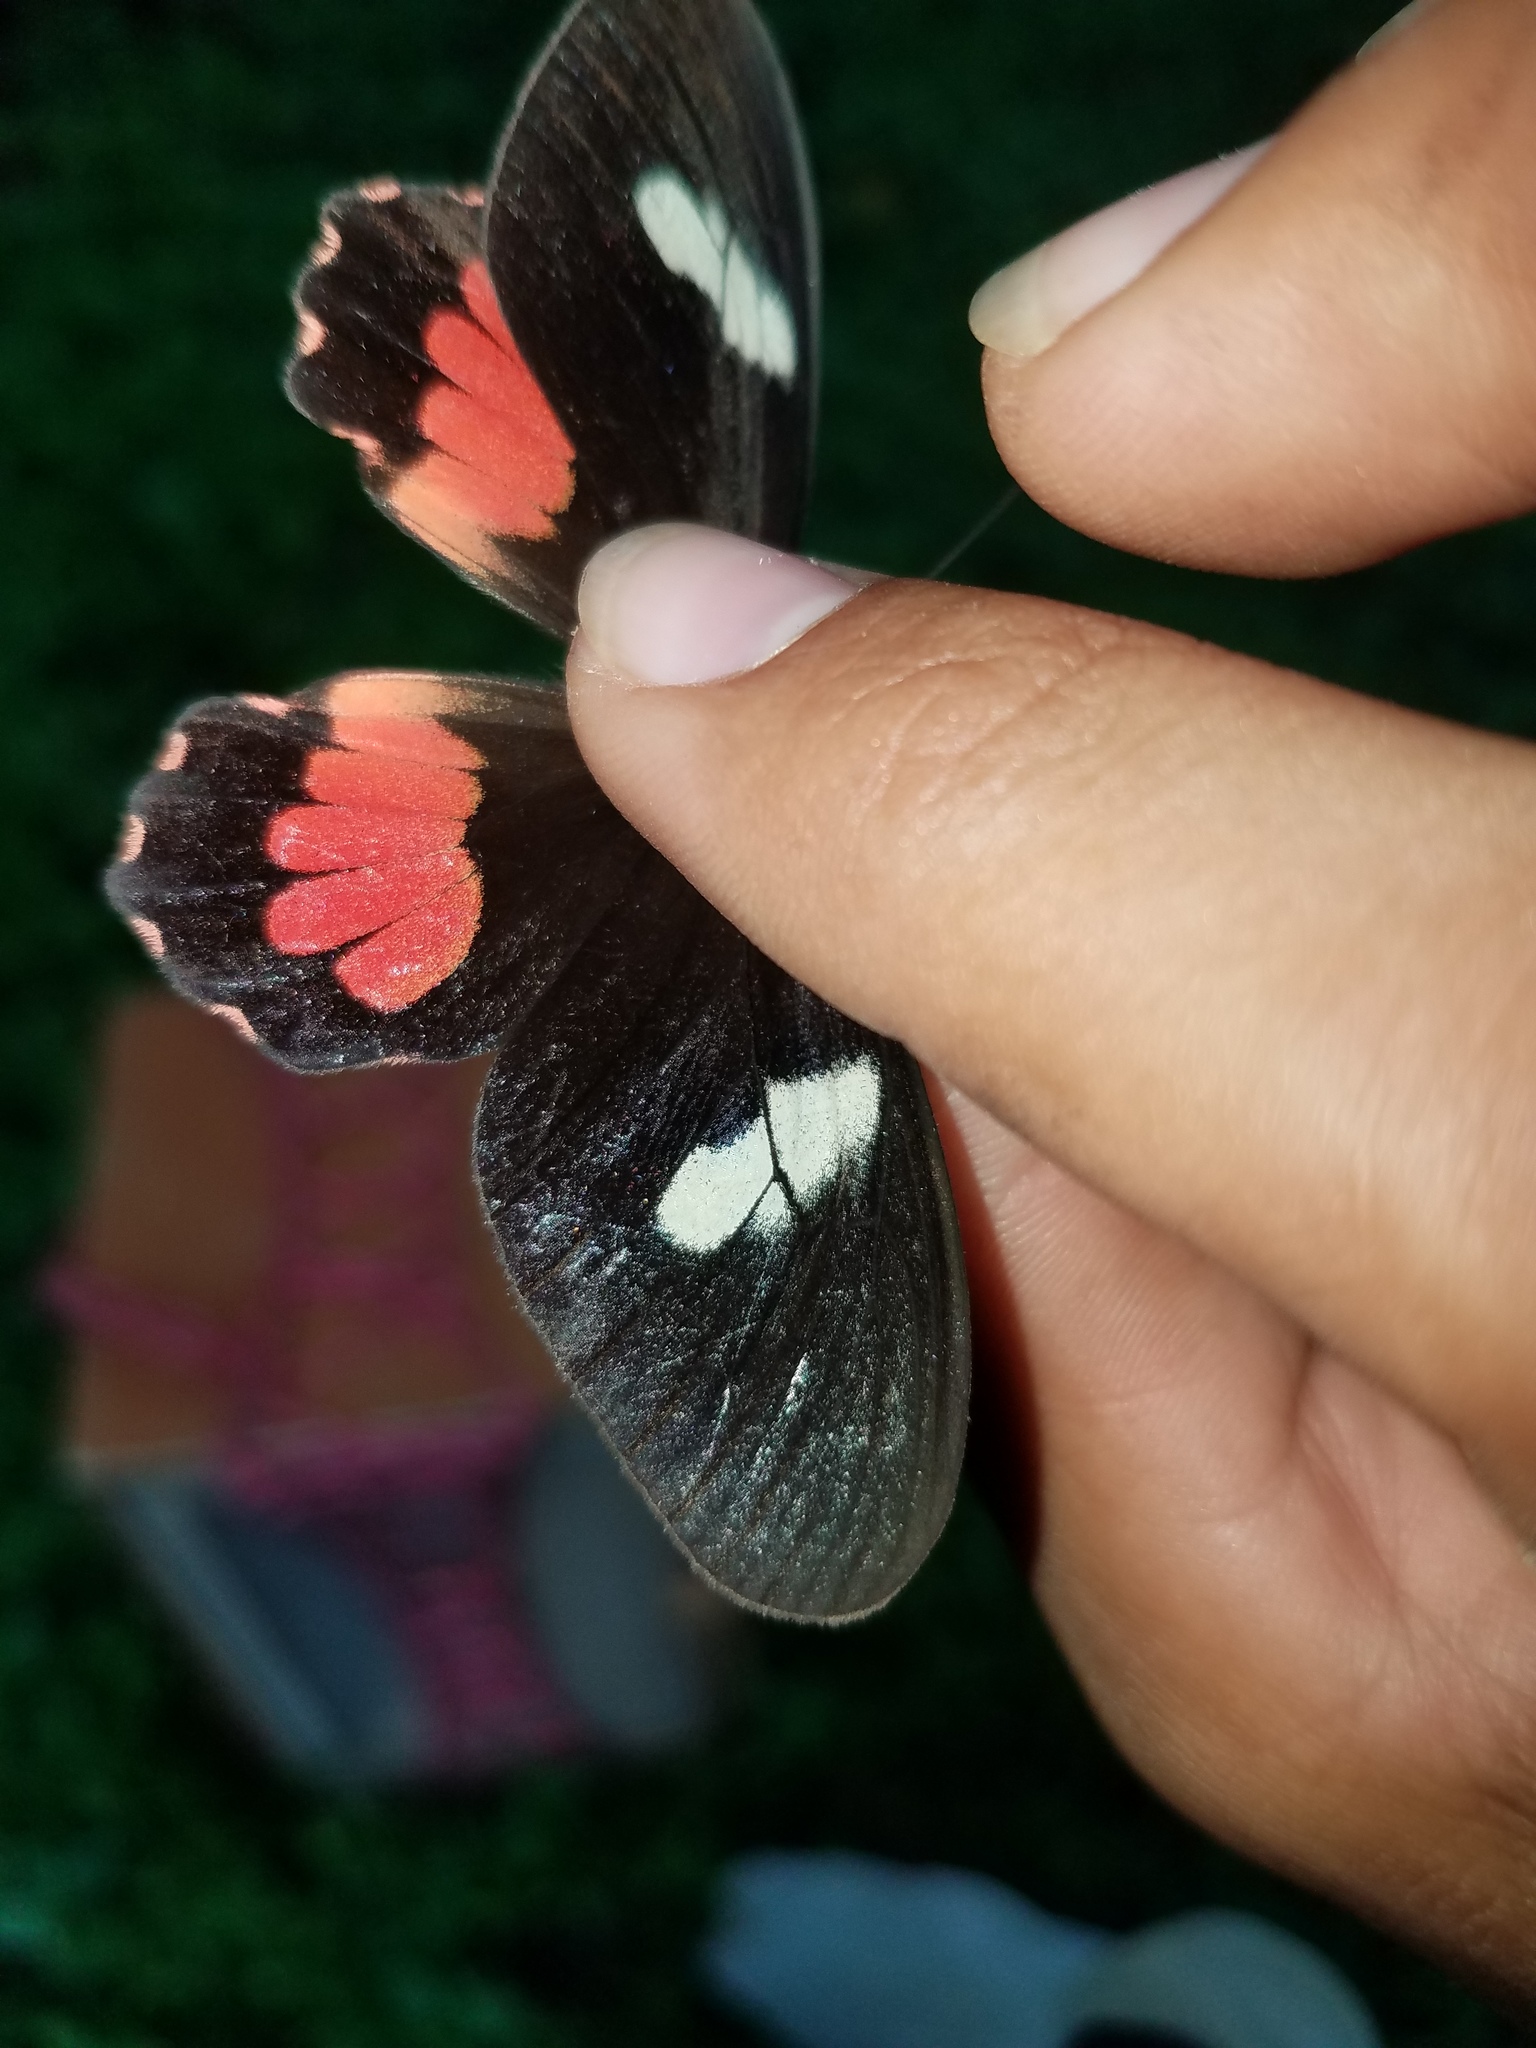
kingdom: Animalia
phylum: Arthropoda
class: Insecta
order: Lepidoptera
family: Papilionidae
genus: Parides
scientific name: Parides eurimedes
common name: True cattleheart
